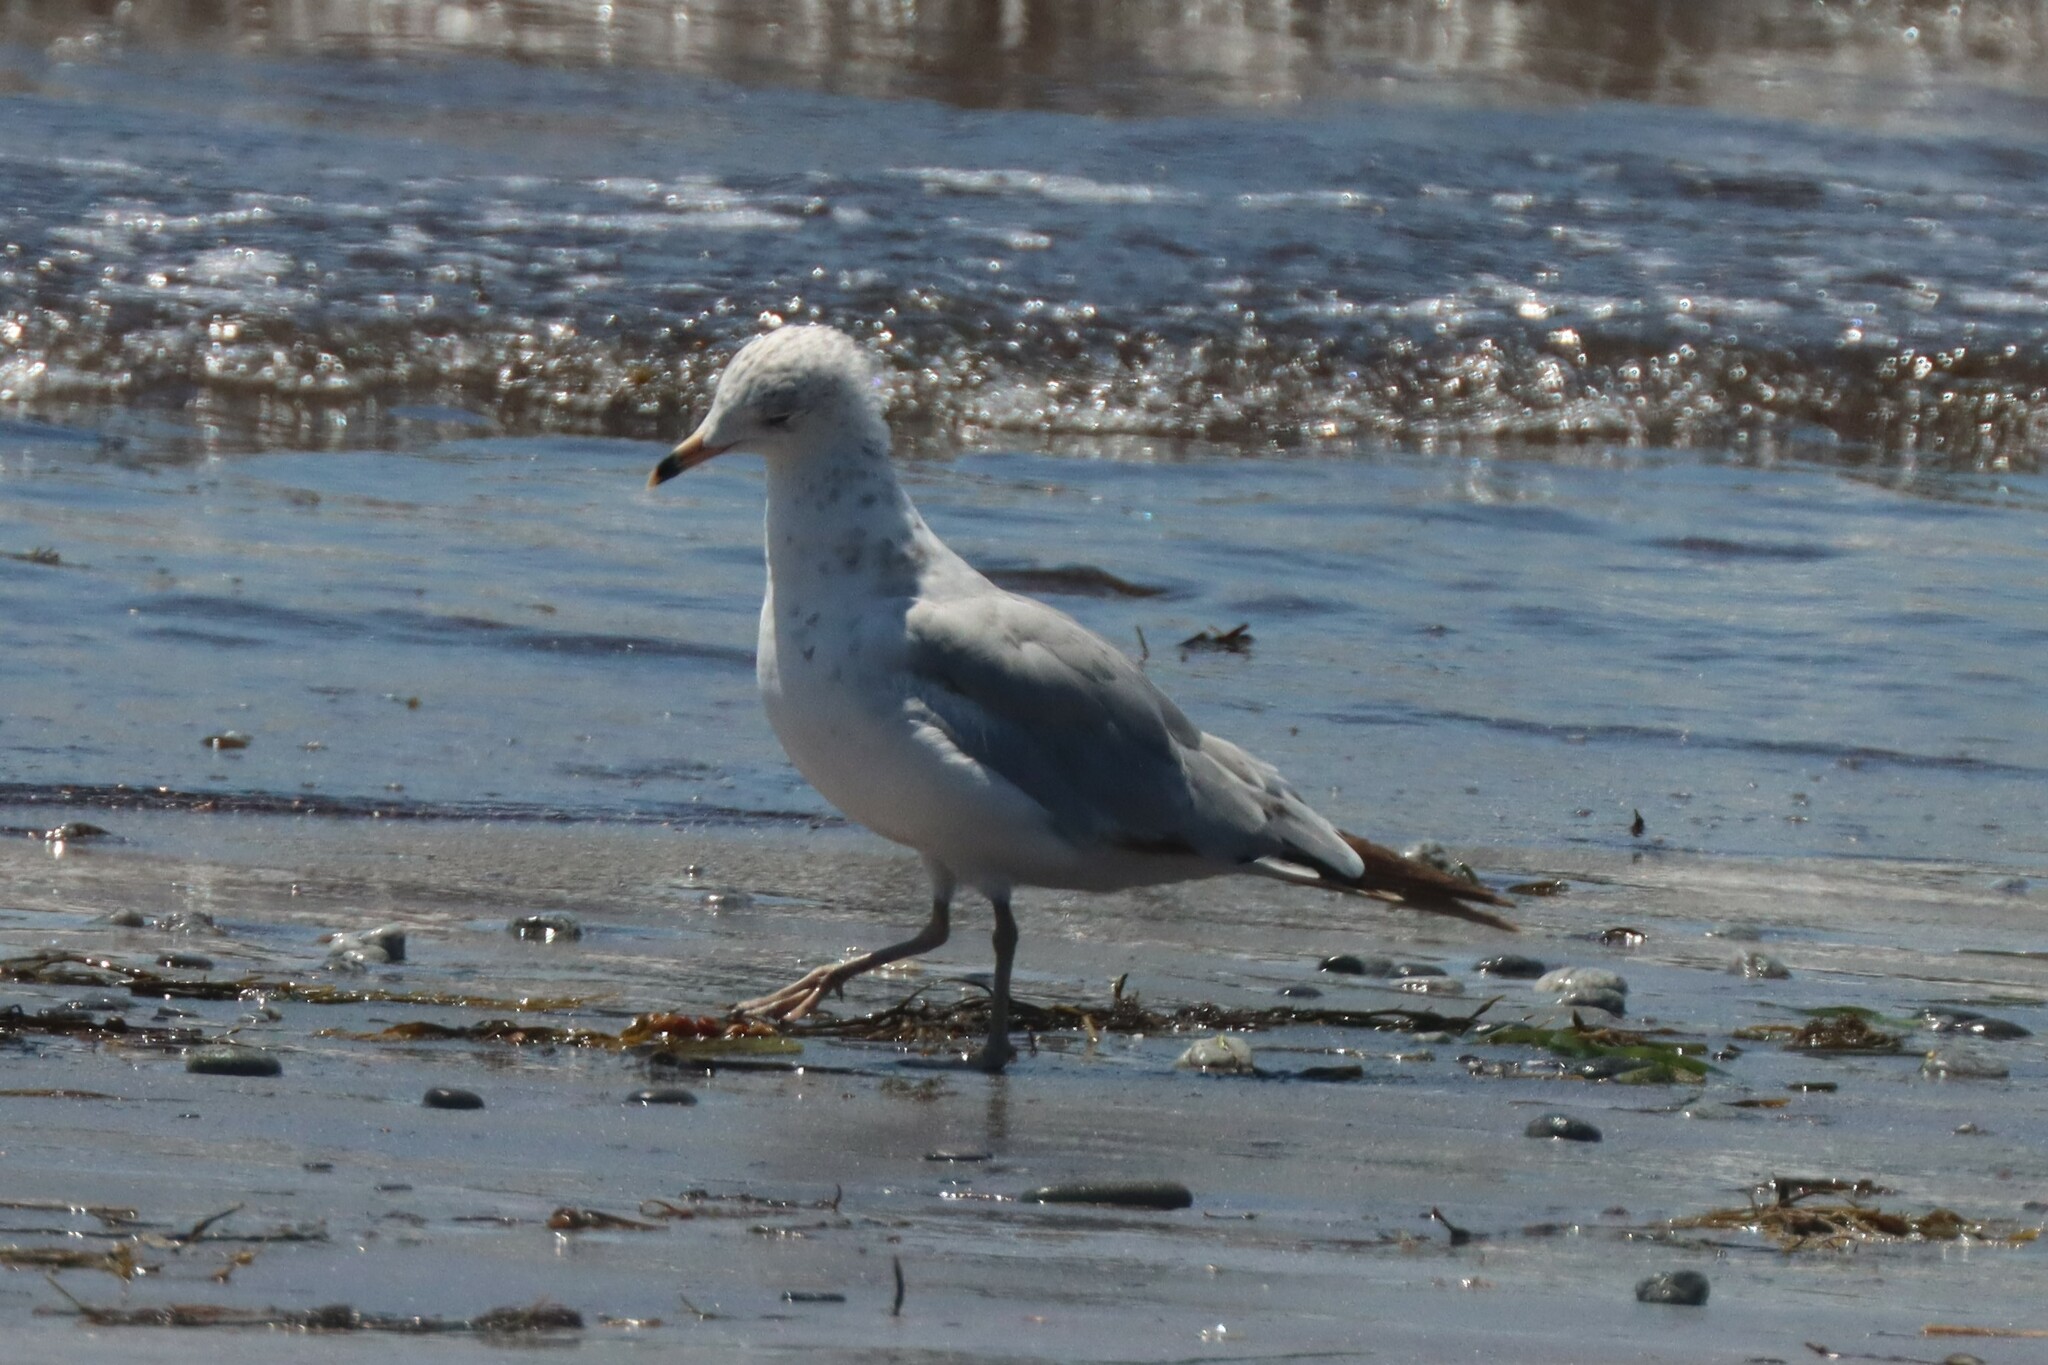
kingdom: Animalia
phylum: Chordata
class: Aves
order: Charadriiformes
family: Laridae
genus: Larus
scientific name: Larus delawarensis
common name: Ring-billed gull
